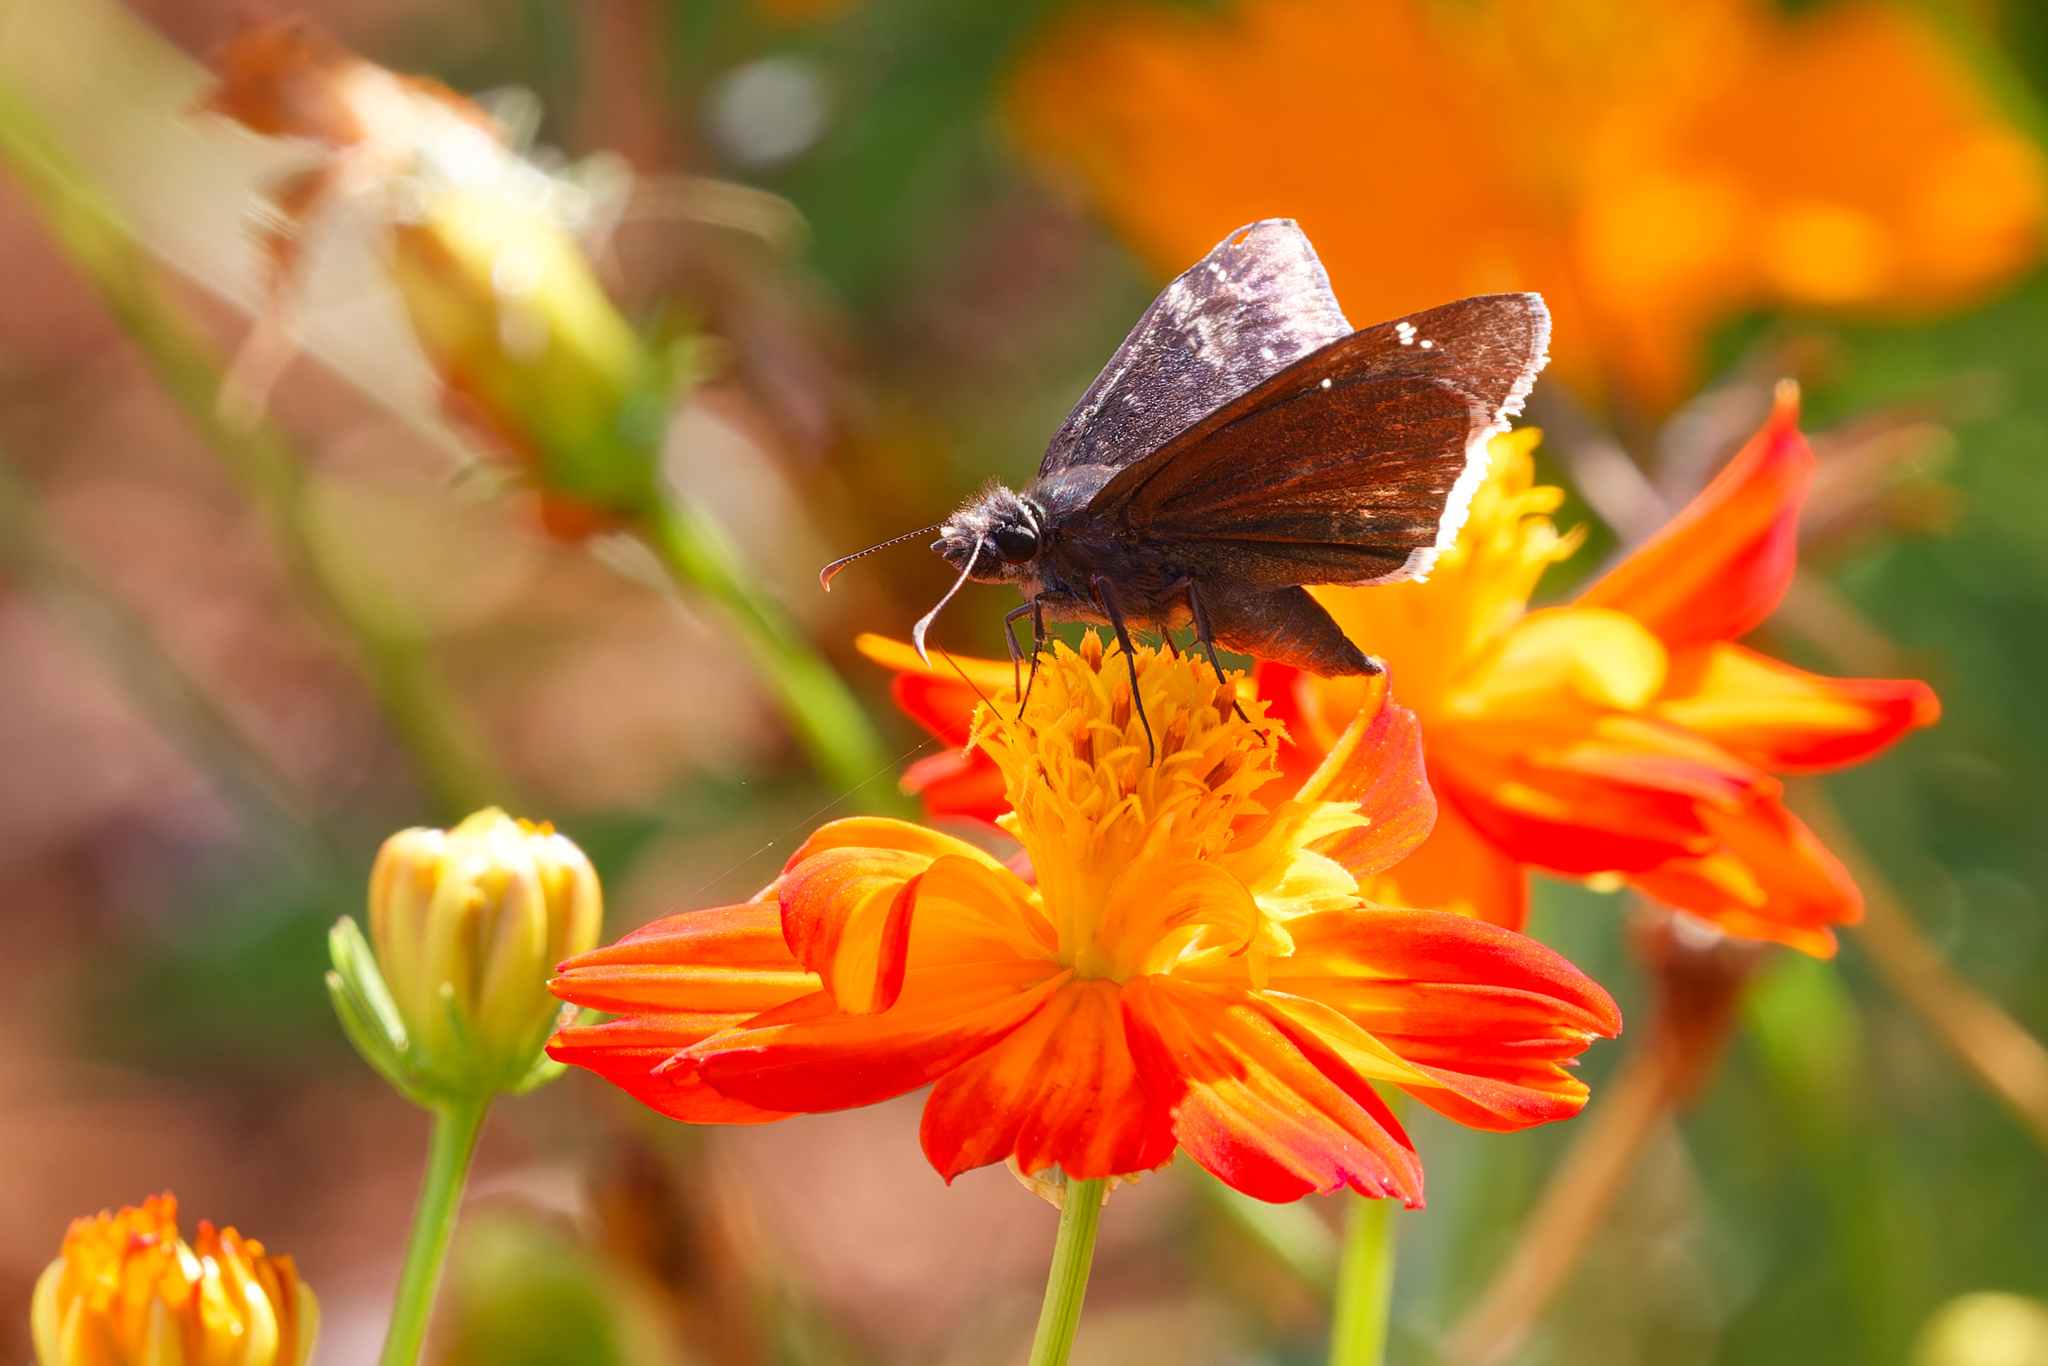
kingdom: Animalia
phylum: Arthropoda
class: Insecta
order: Lepidoptera
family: Hesperiidae
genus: Erynnis
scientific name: Erynnis funeralis
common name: Funereal duskywing
